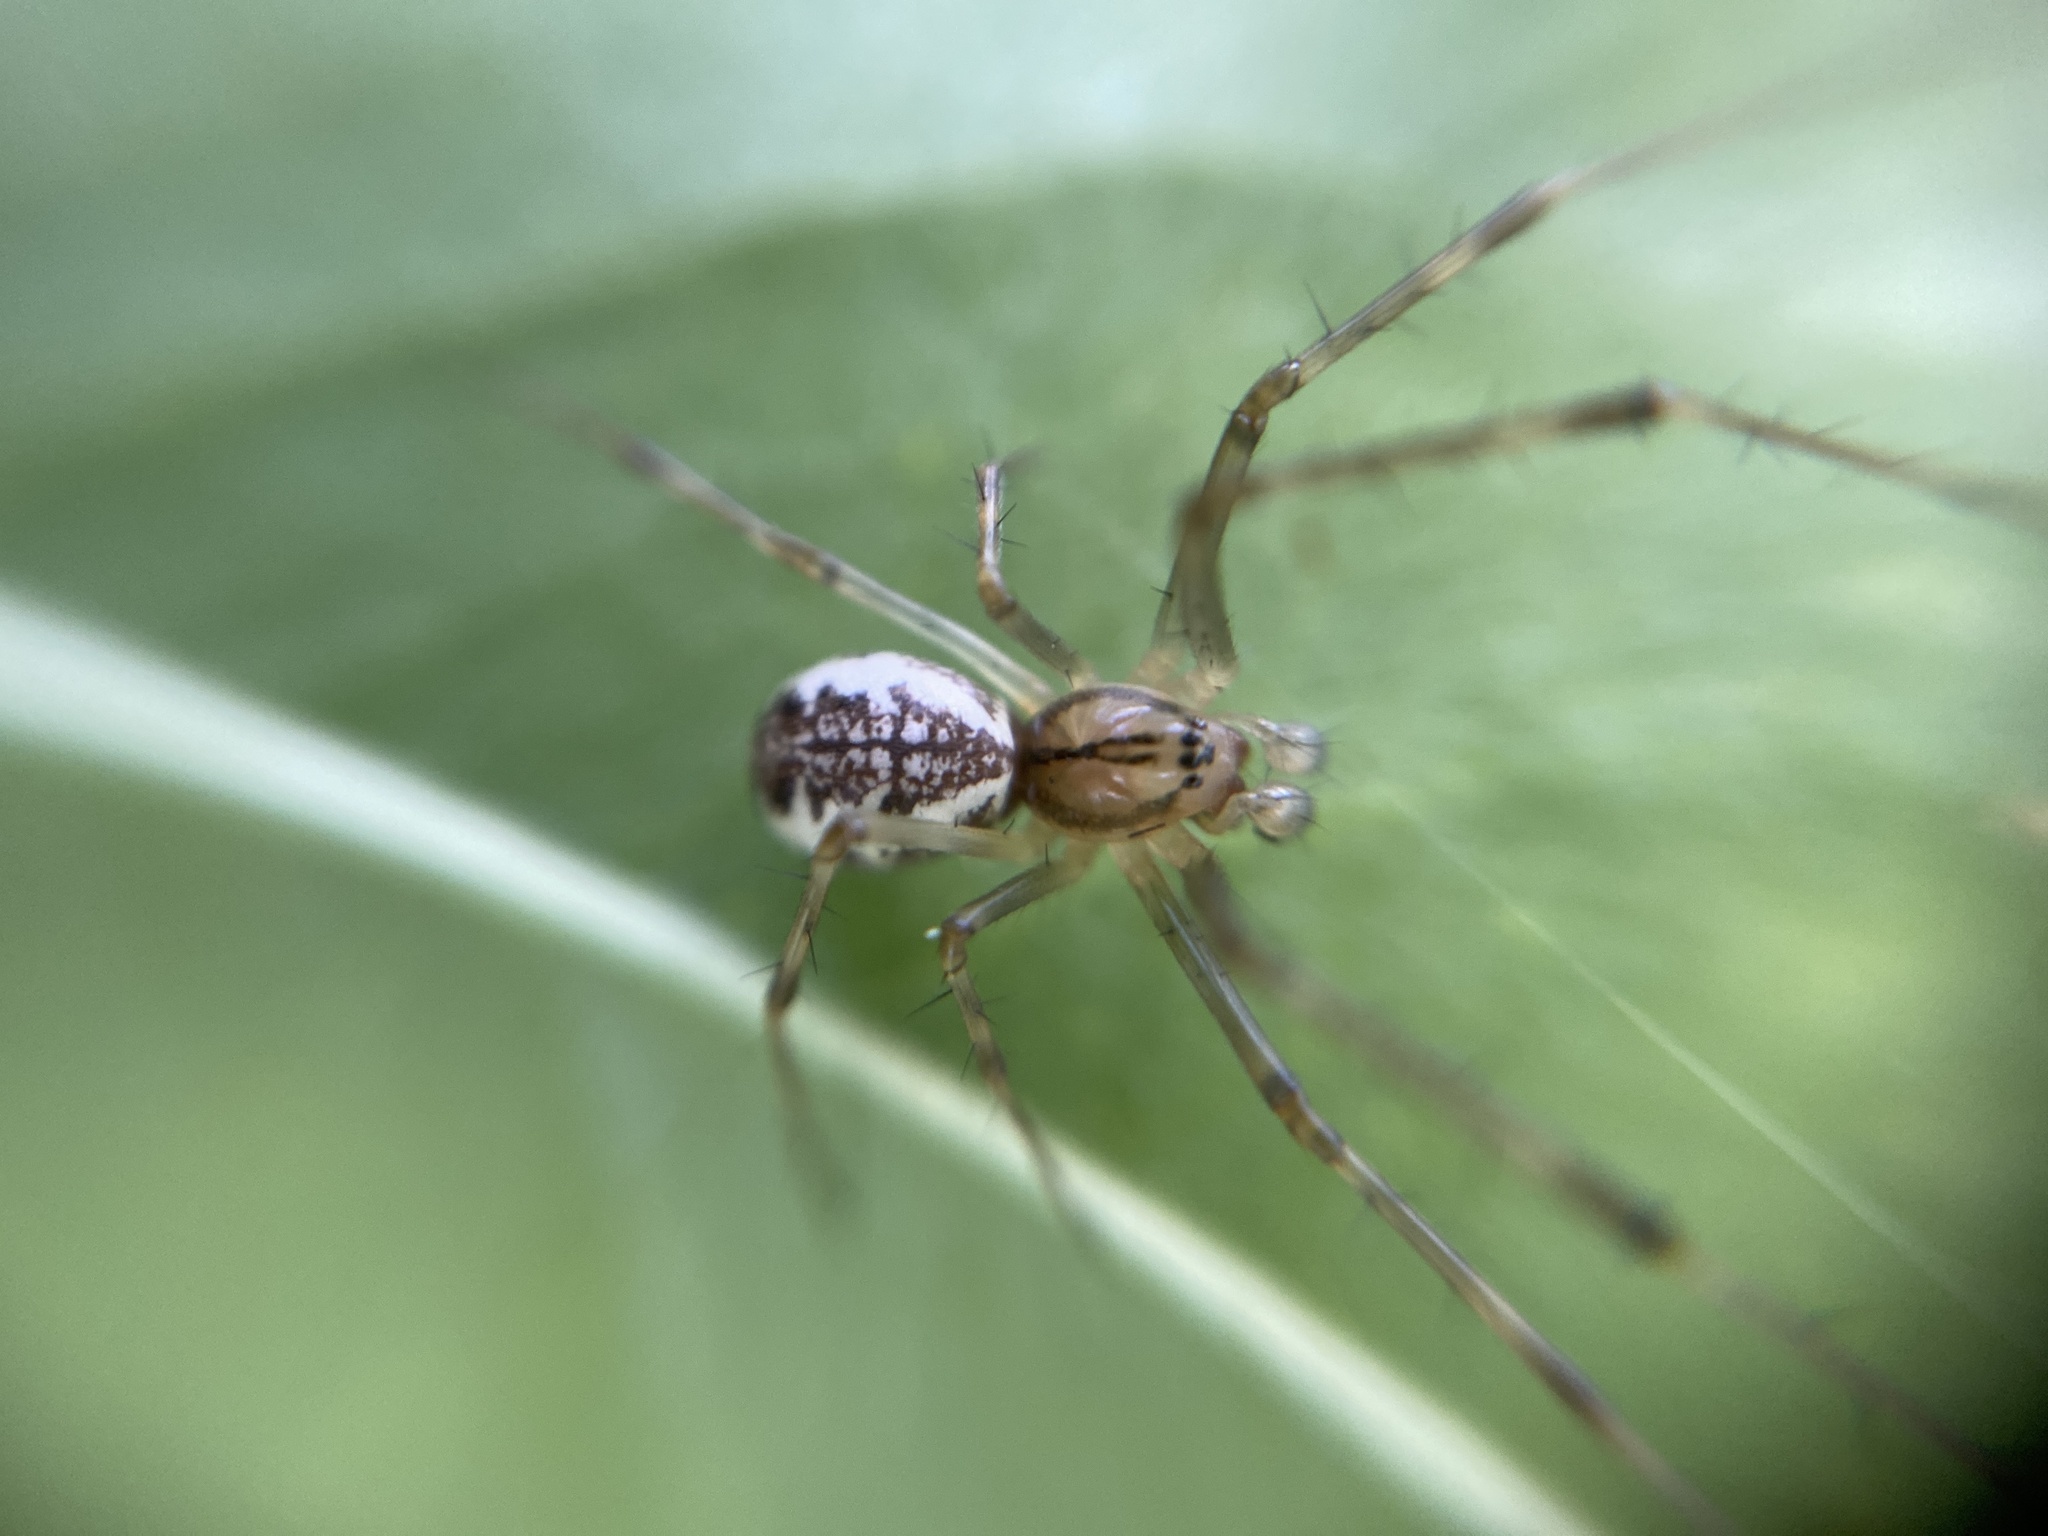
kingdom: Animalia
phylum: Arthropoda
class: Arachnida
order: Araneae
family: Linyphiidae
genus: Linyphia
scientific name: Linyphia triangularis
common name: Money spider
